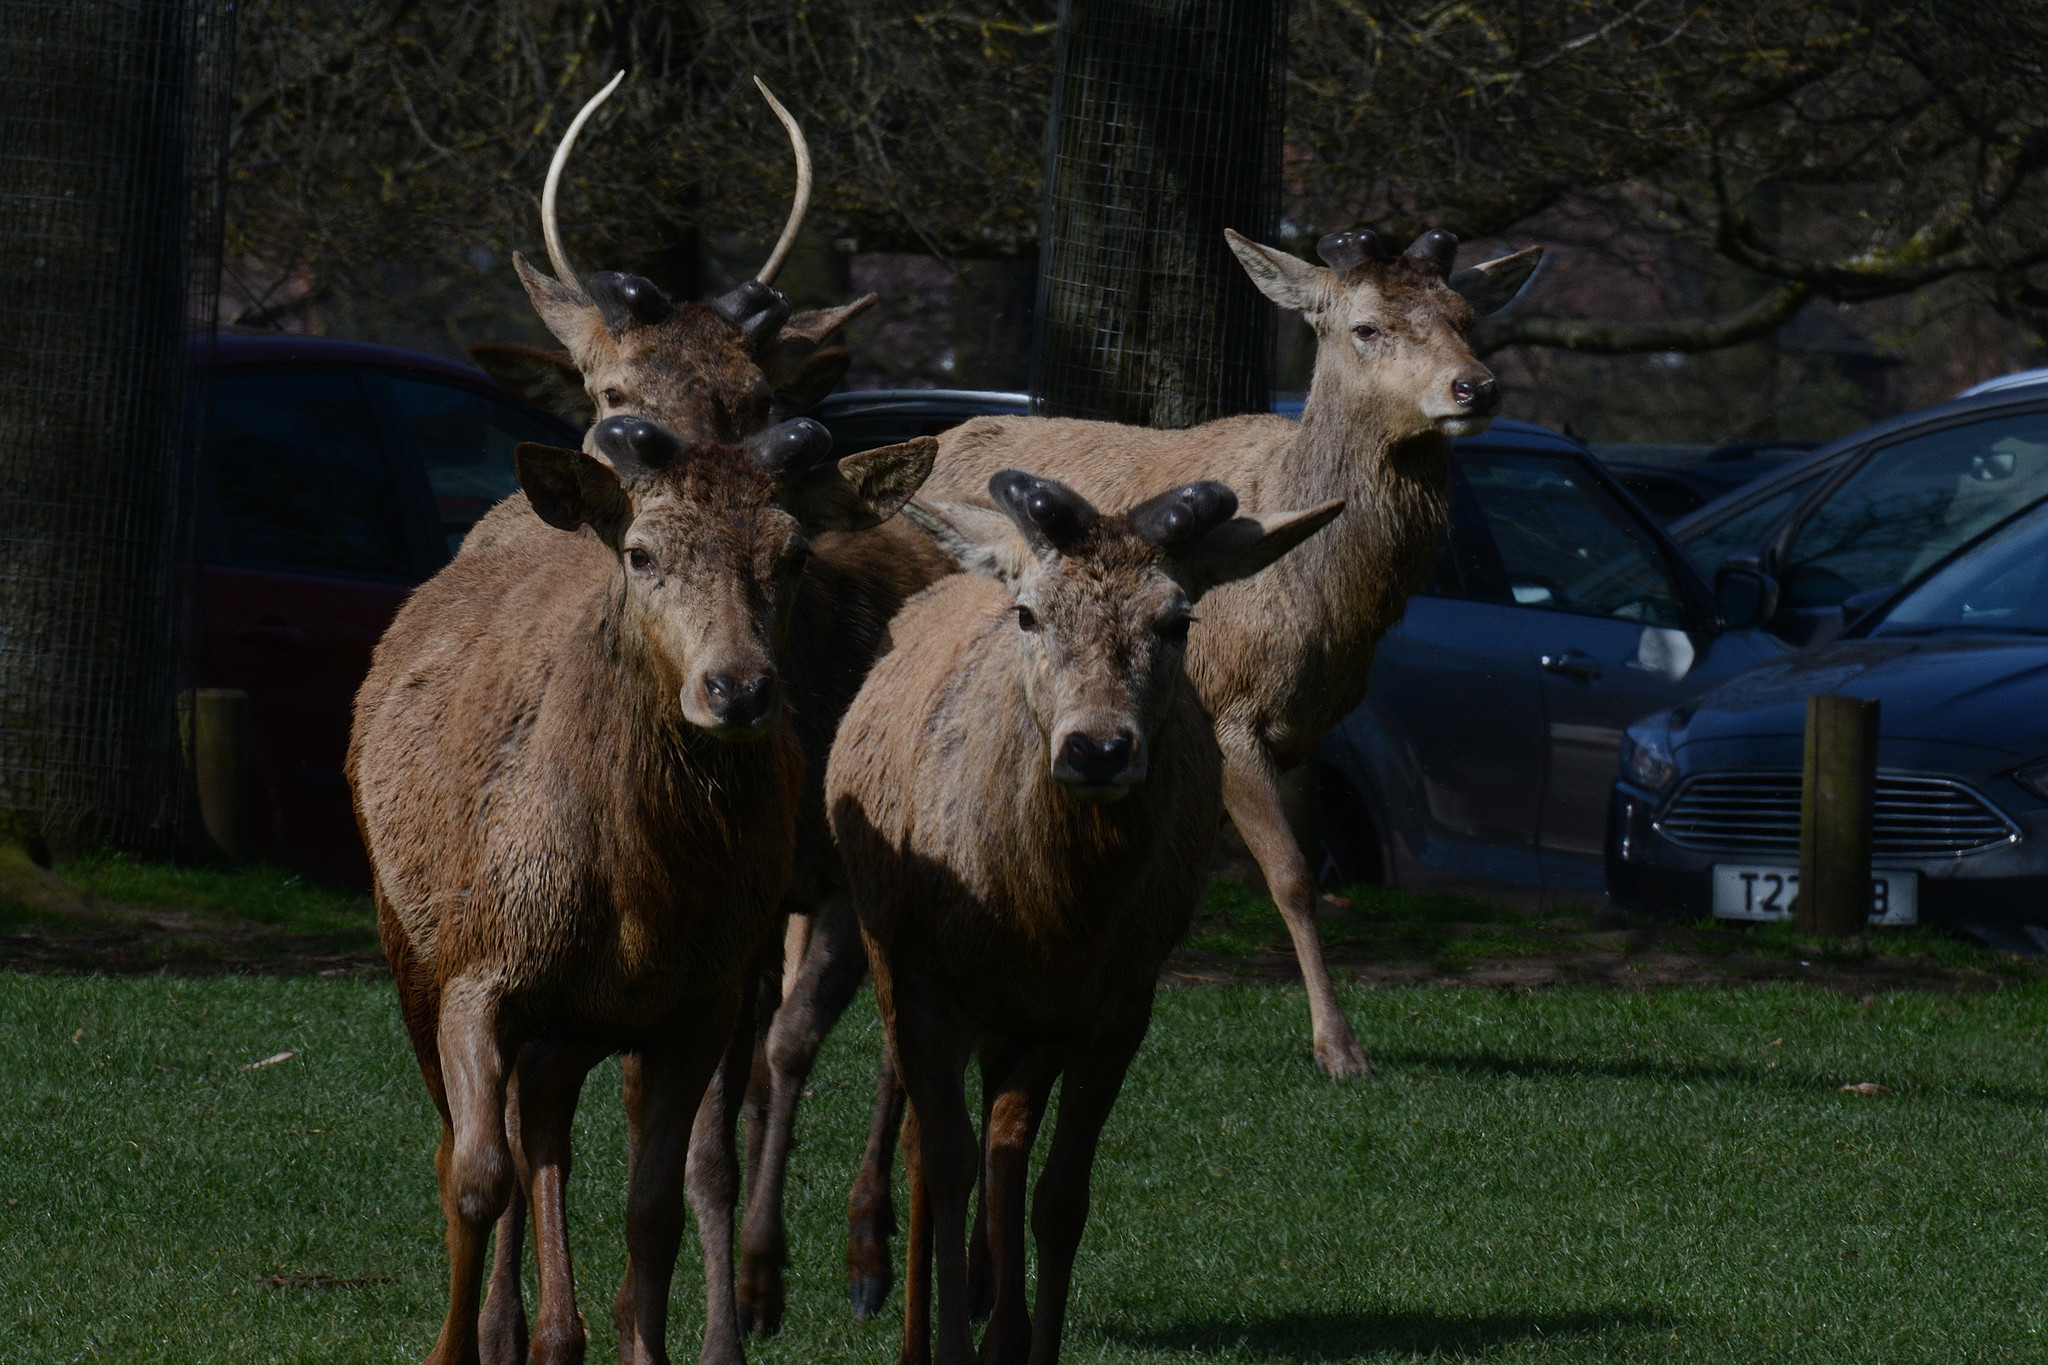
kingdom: Animalia
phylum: Chordata
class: Mammalia
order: Artiodactyla
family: Cervidae
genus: Cervus
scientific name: Cervus elaphus
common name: Red deer
